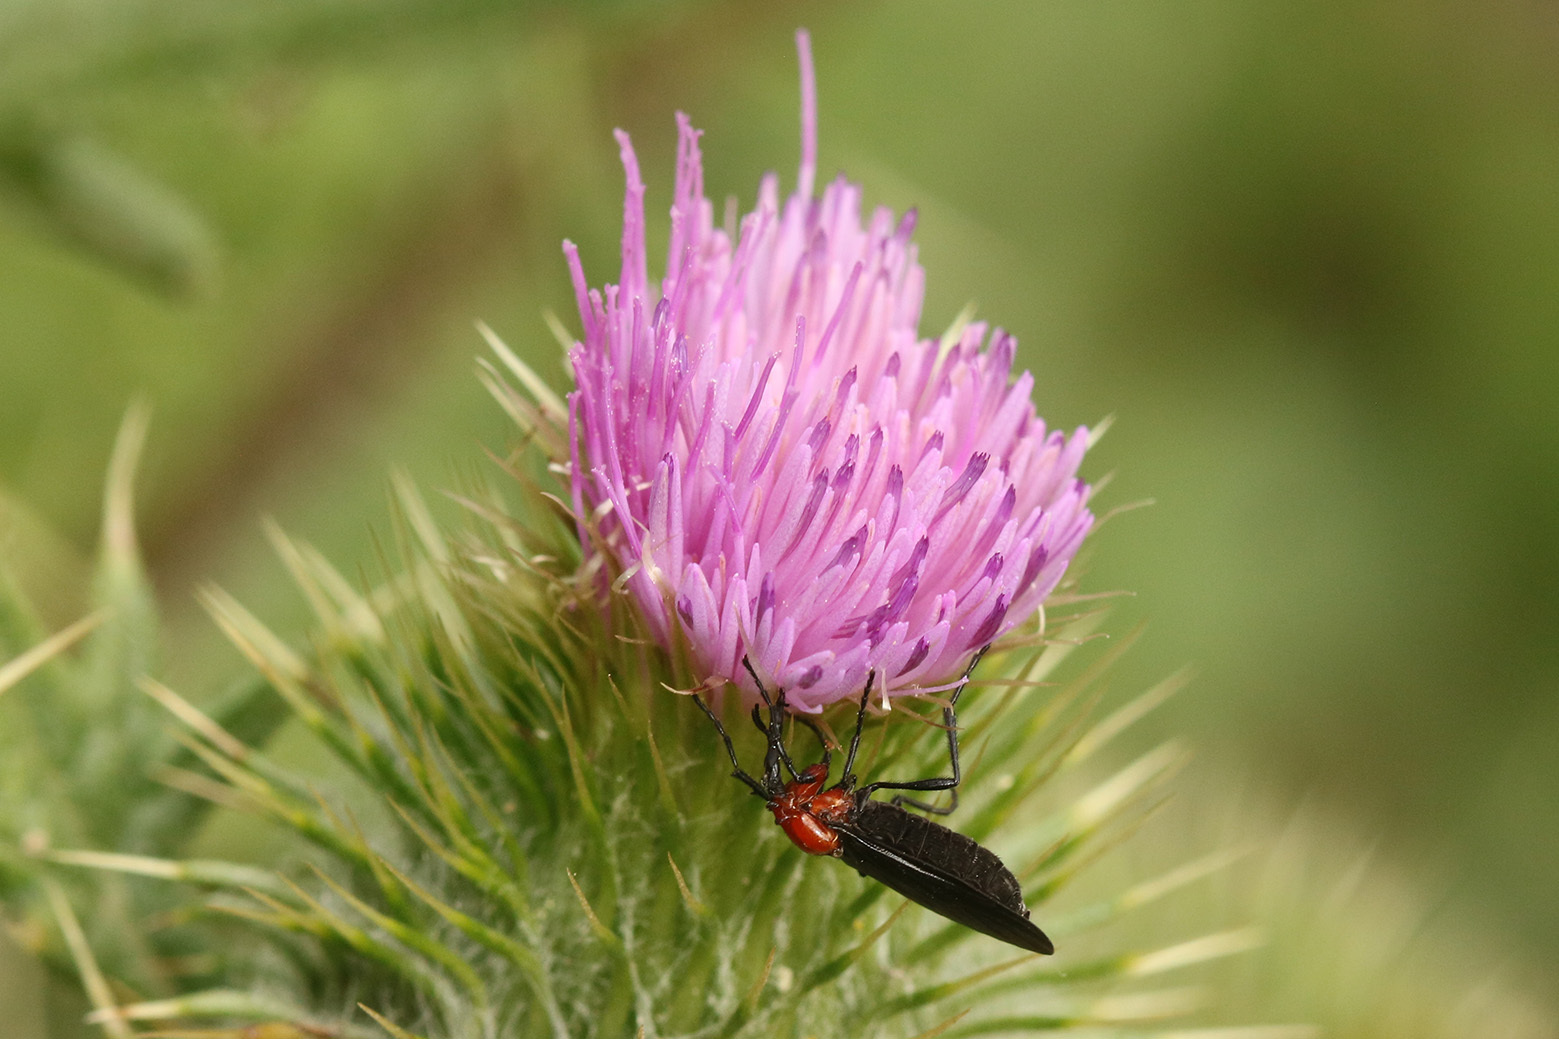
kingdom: Animalia
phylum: Arthropoda
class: Insecta
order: Diptera
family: Bibionidae
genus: Dilophus
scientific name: Dilophus pectoralis
